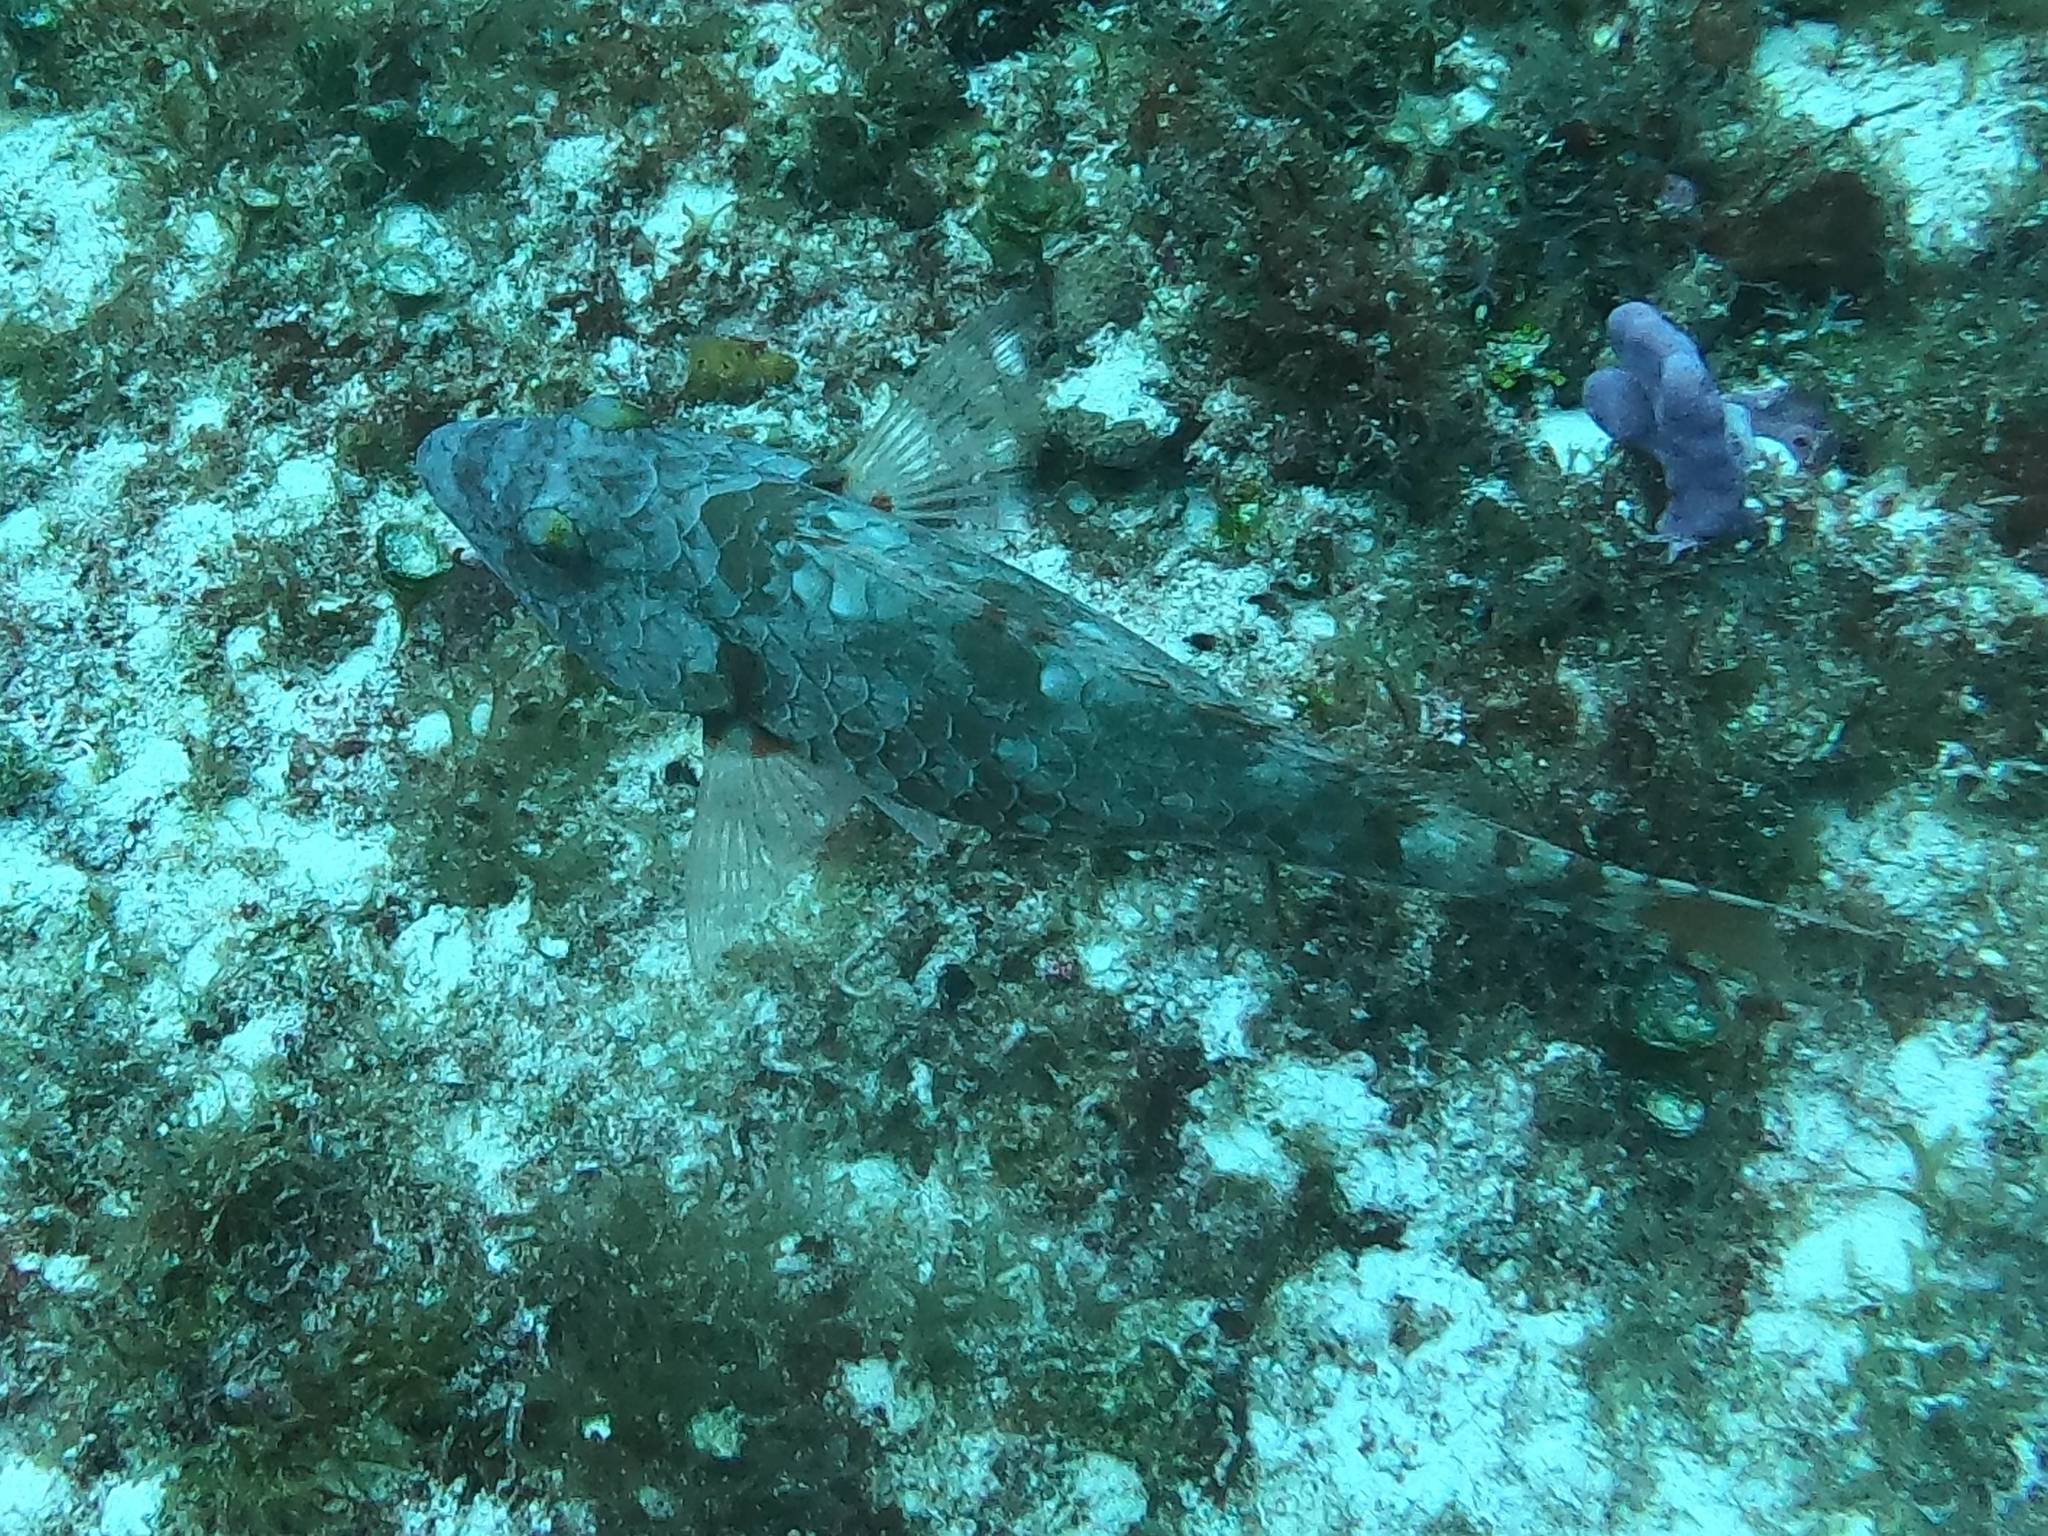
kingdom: Animalia
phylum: Chordata
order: Perciformes
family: Scaridae
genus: Sparisoma
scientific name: Sparisoma chrysopterum
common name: Redtail parrotfish
